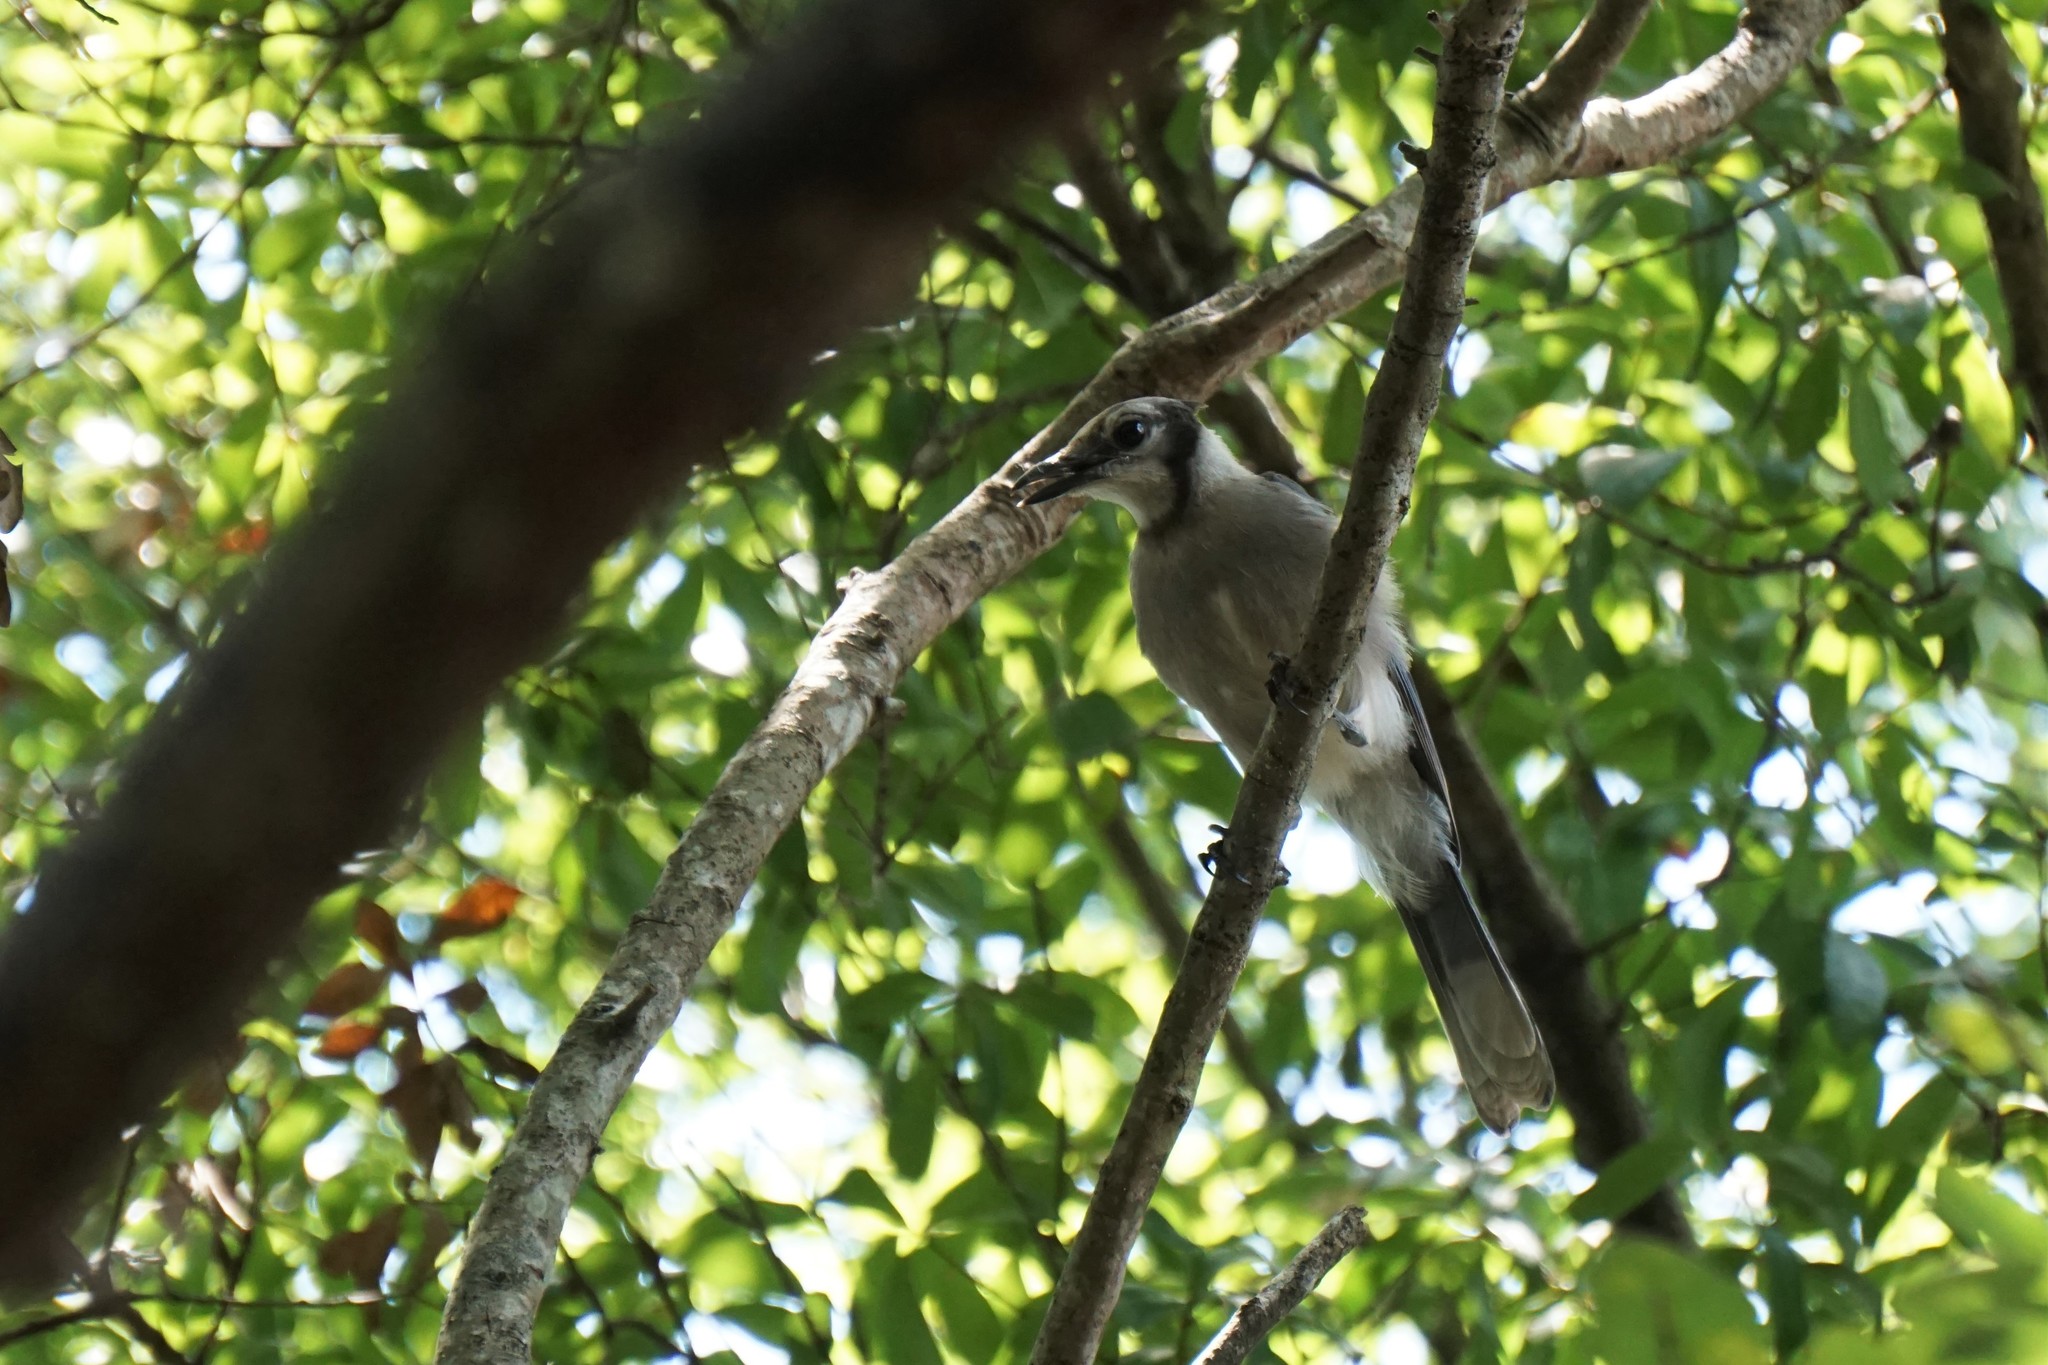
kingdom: Animalia
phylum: Chordata
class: Aves
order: Passeriformes
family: Corvidae
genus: Cyanocitta
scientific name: Cyanocitta cristata
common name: Blue jay
